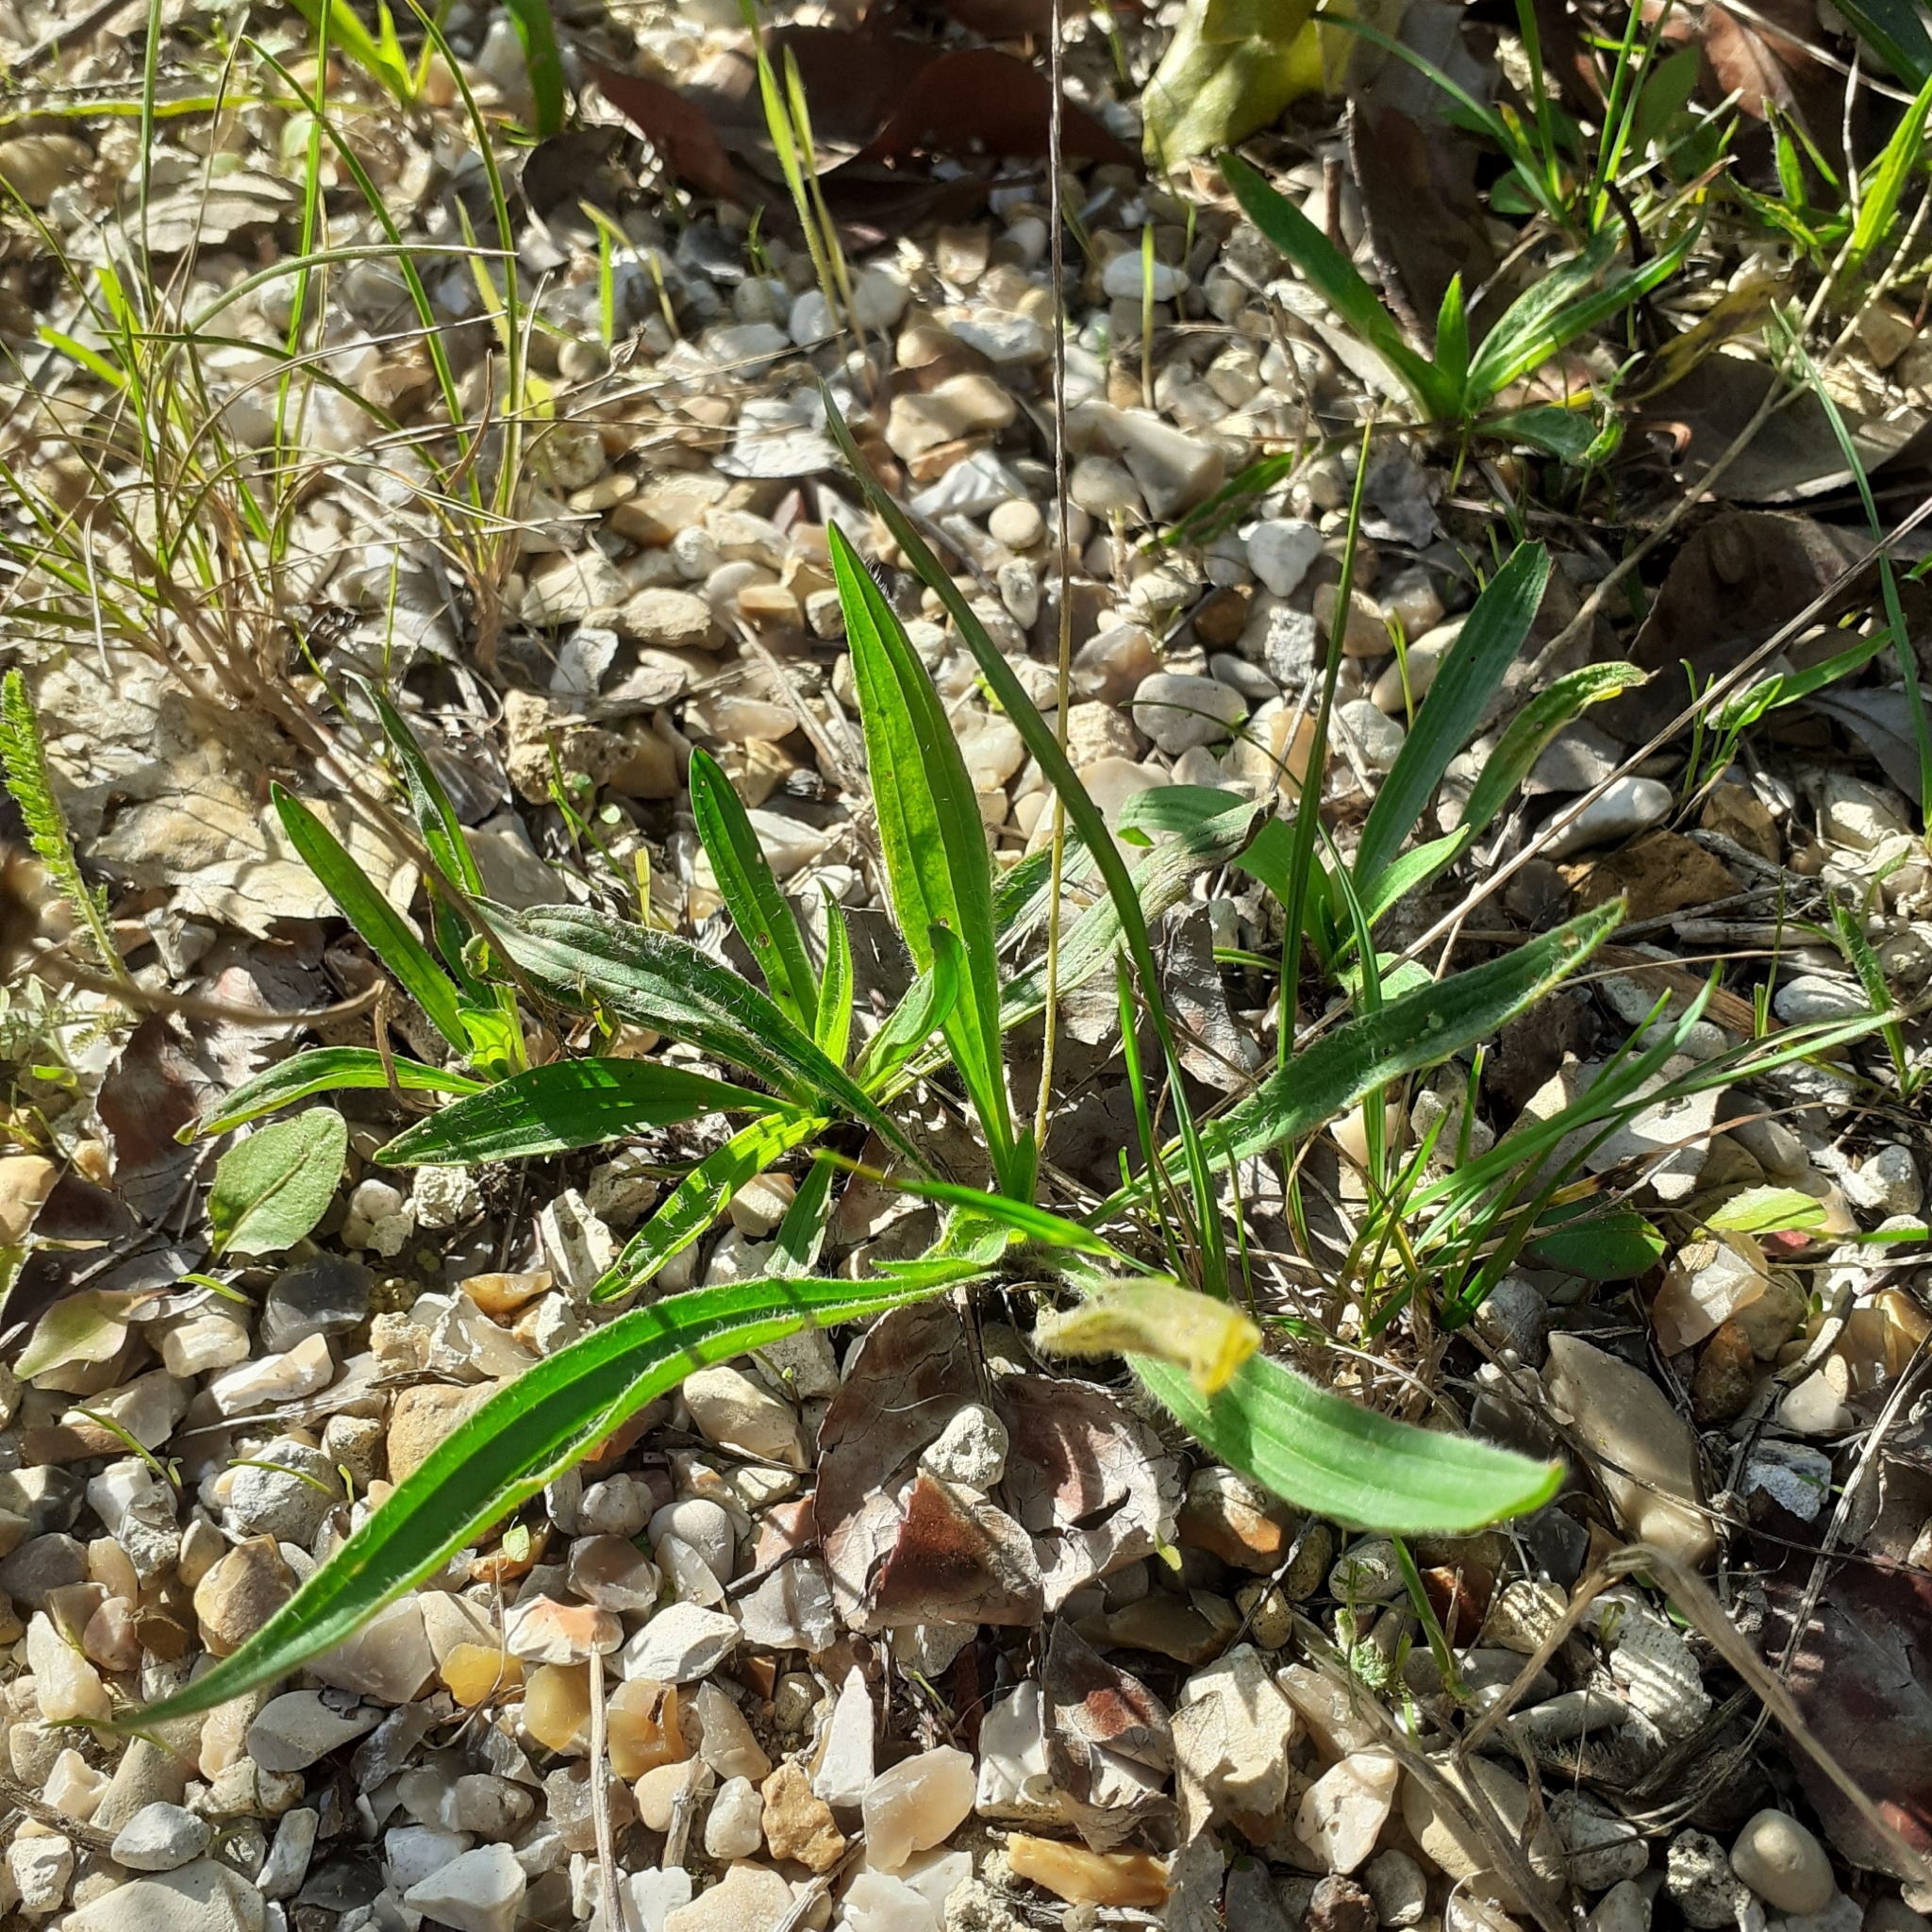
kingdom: Plantae
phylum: Tracheophyta
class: Magnoliopsida
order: Lamiales
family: Plantaginaceae
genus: Plantago
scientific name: Plantago lanceolata
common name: Ribwort plantain
